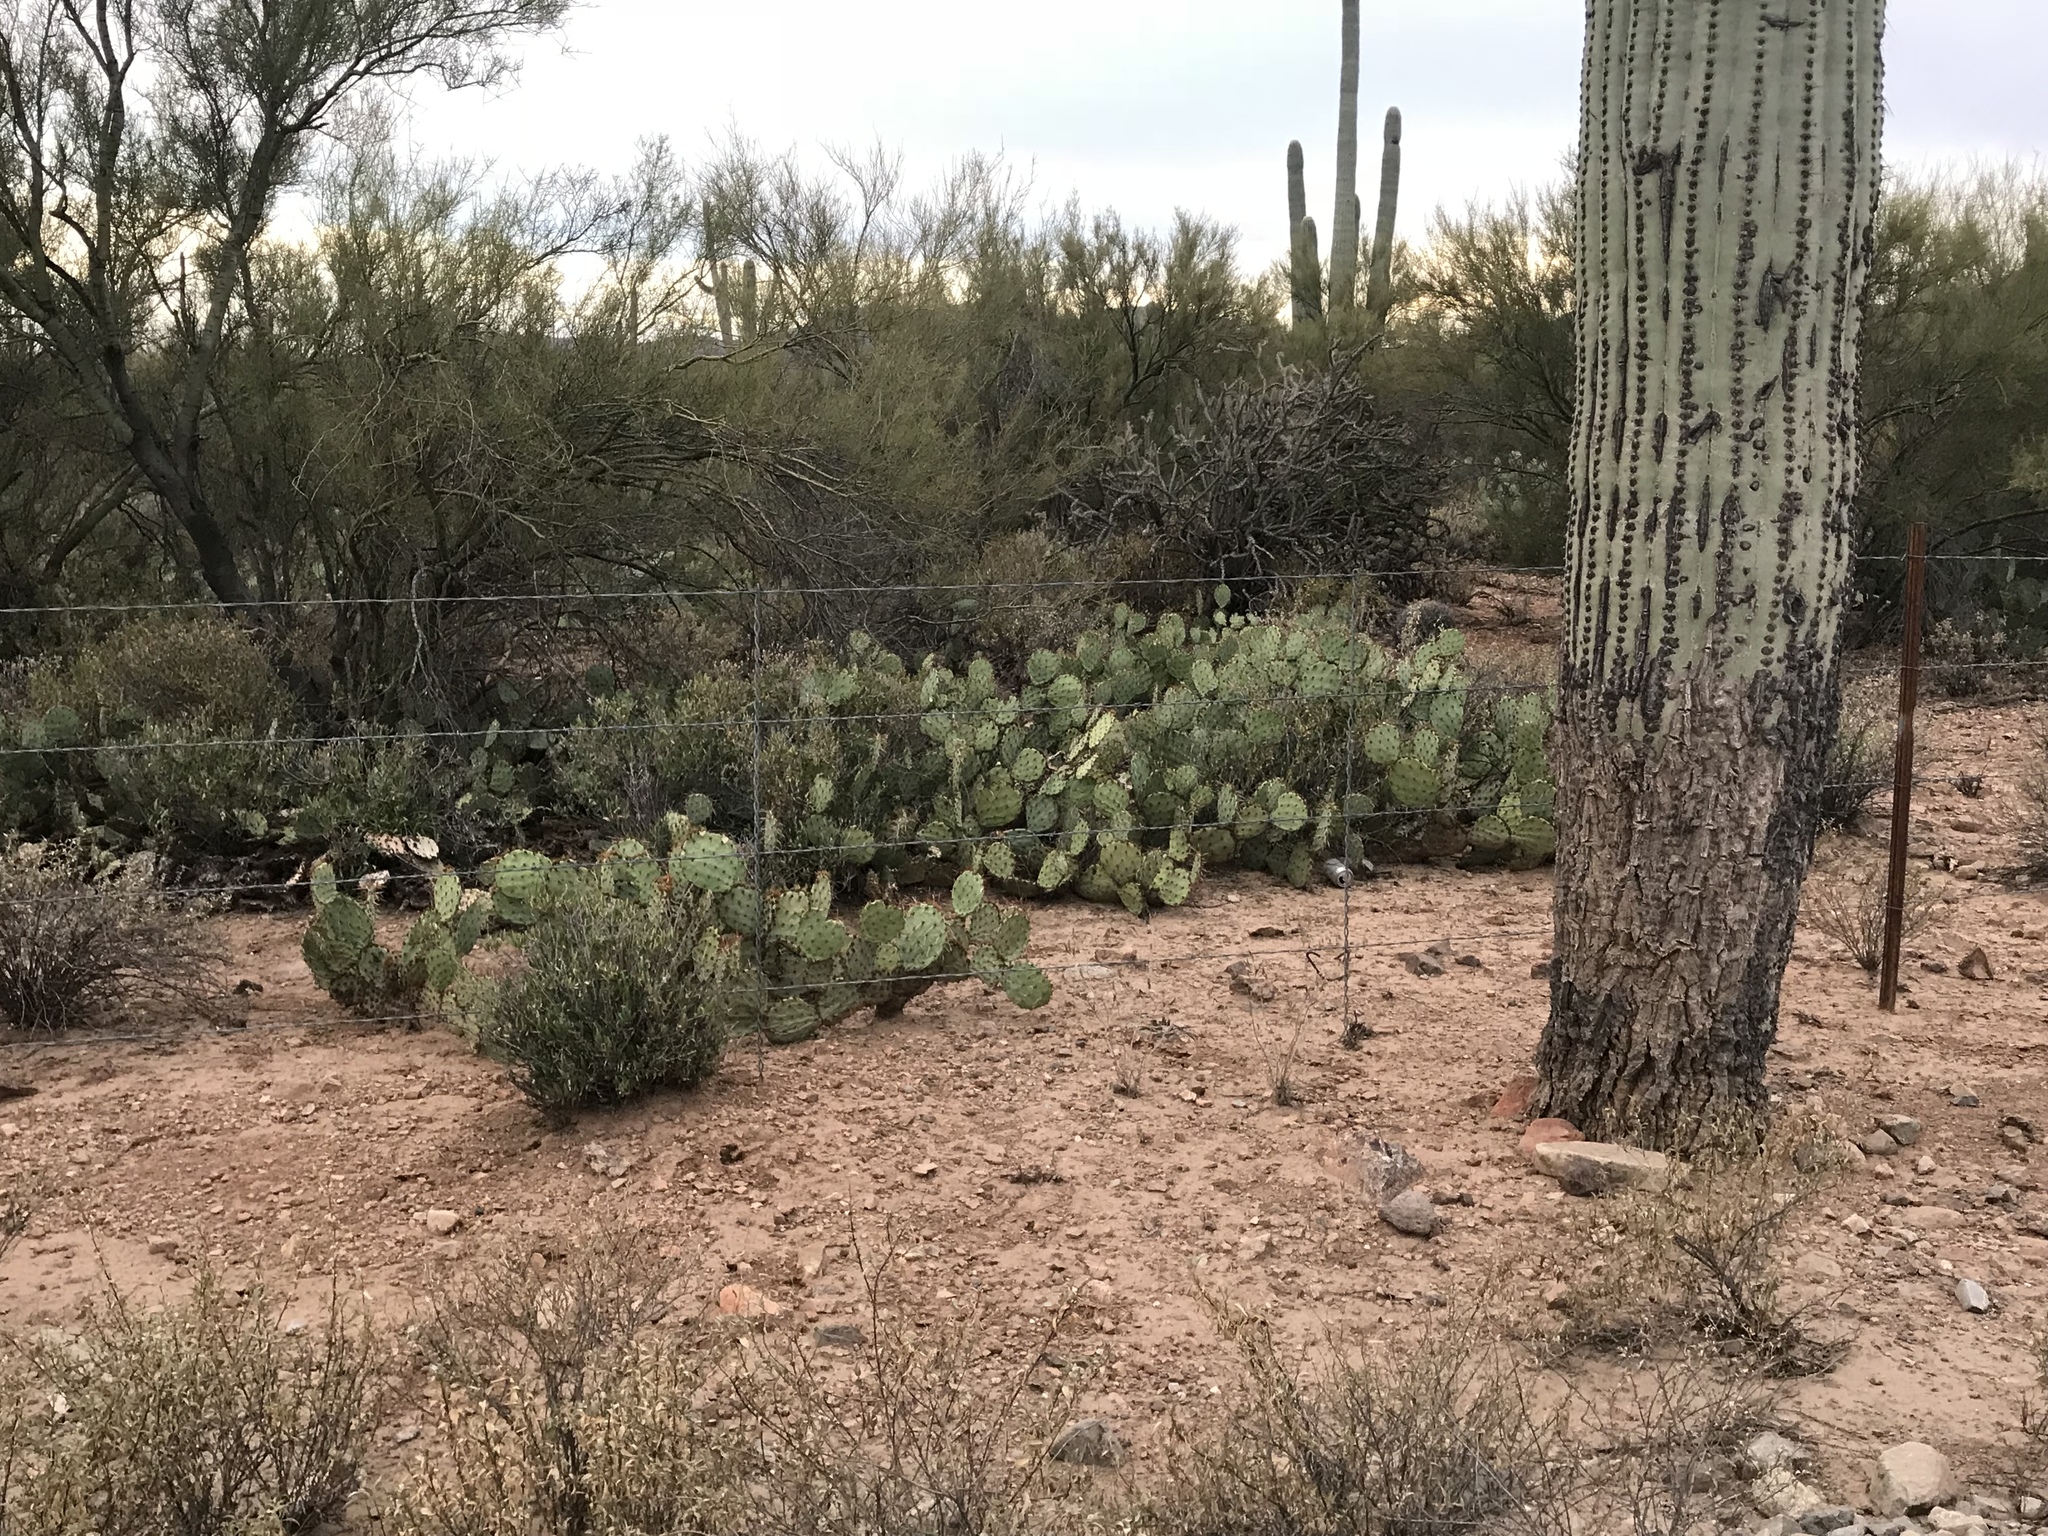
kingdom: Plantae
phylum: Tracheophyta
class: Magnoliopsida
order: Caryophyllales
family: Cactaceae
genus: Opuntia
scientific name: Opuntia phaeacantha
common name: New mexico prickly-pear
